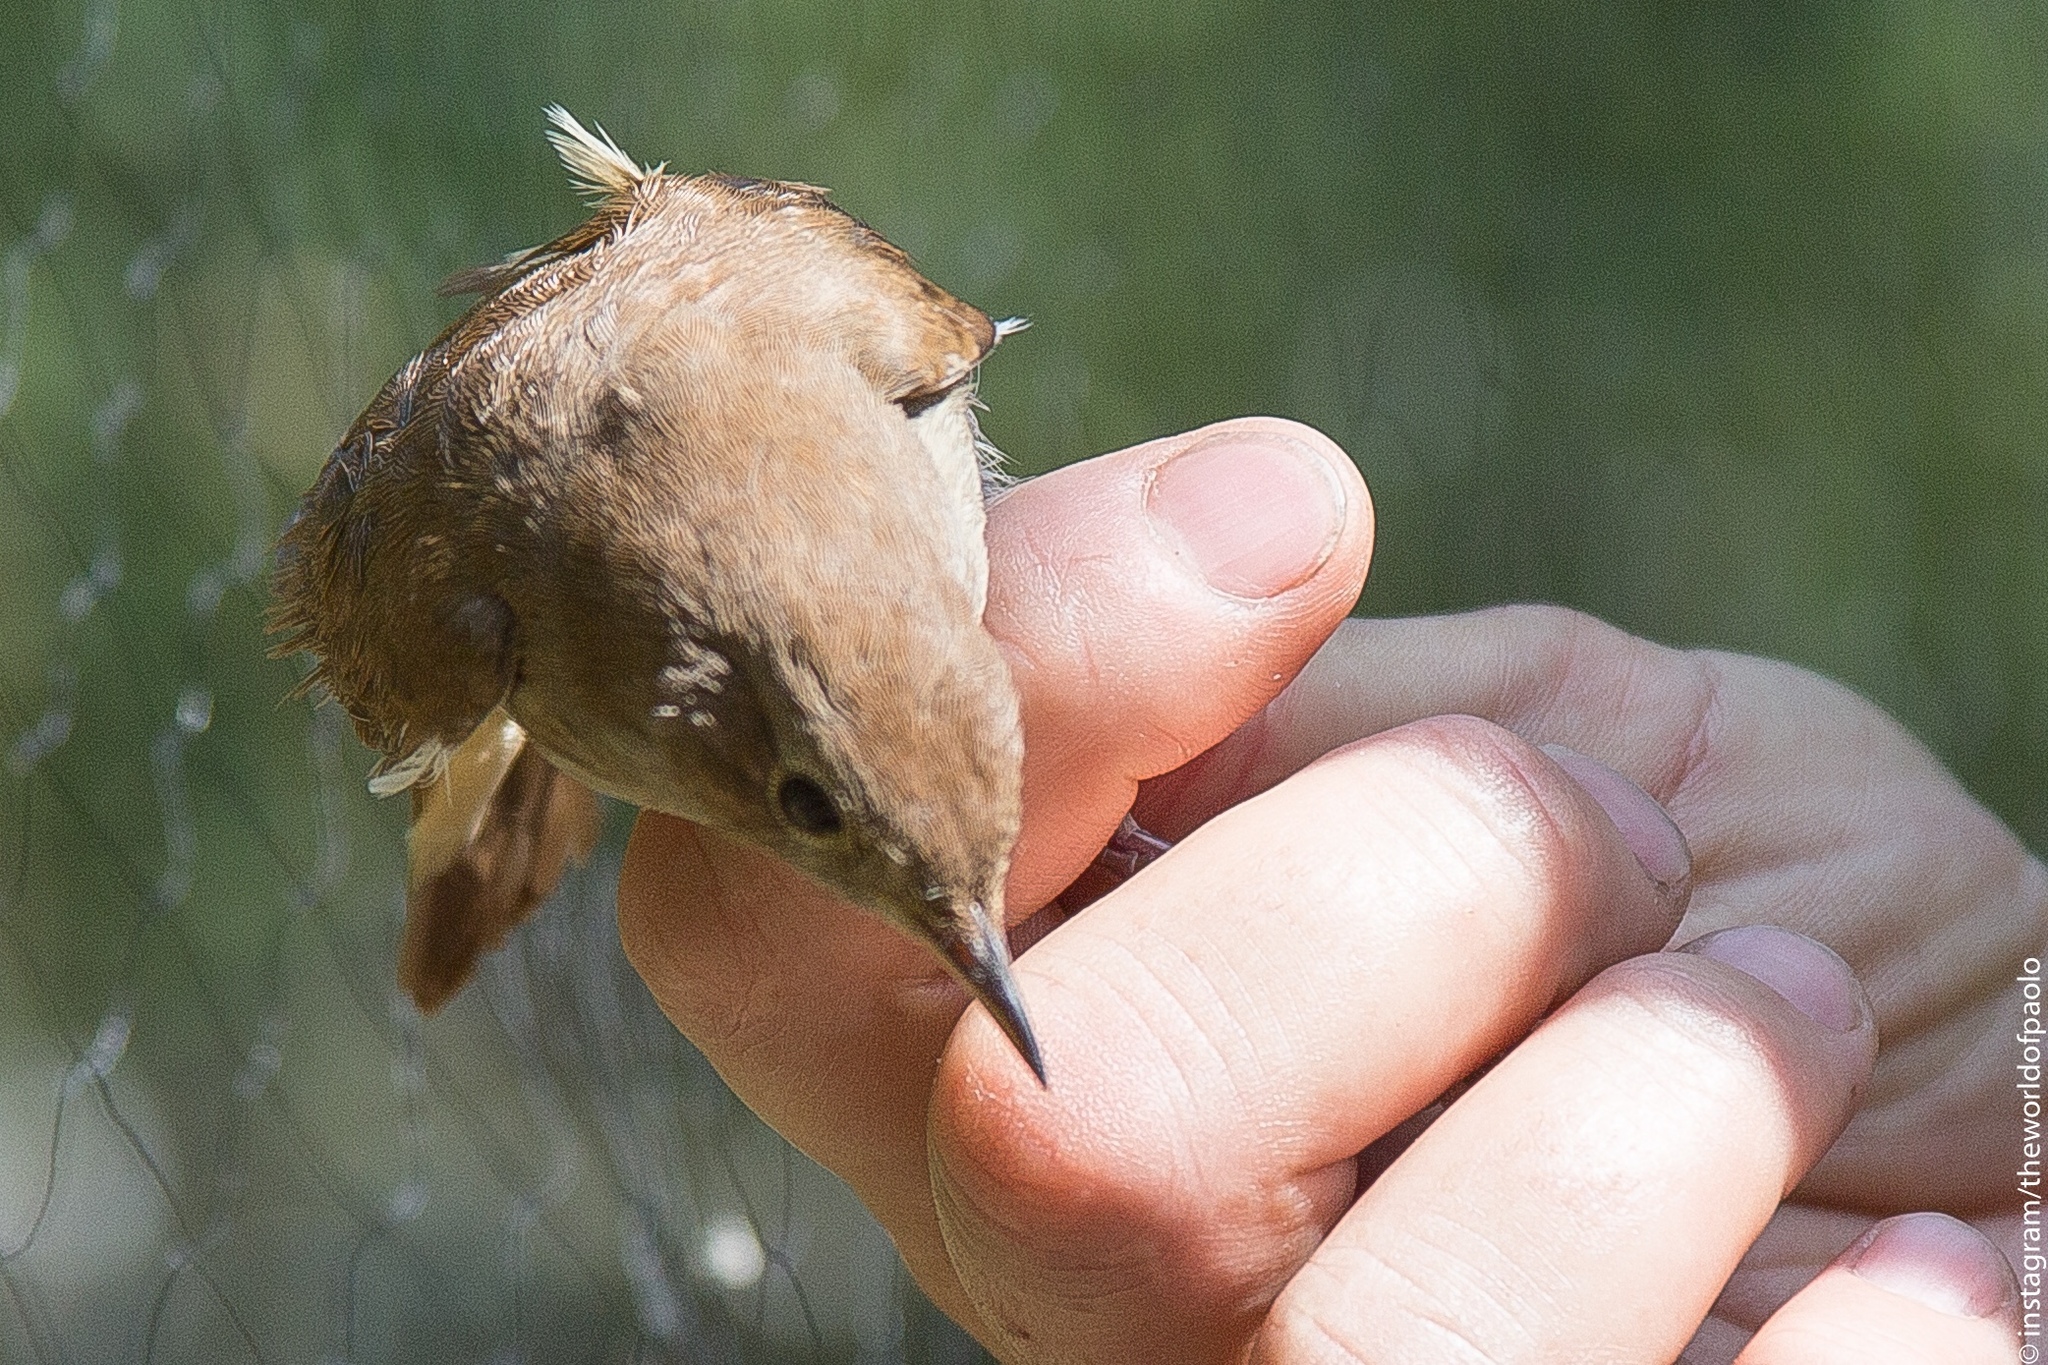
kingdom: Animalia
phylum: Chordata
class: Aves
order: Passeriformes
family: Muscicapidae
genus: Luscinia
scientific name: Luscinia megarhynchos
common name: Common nightingale
